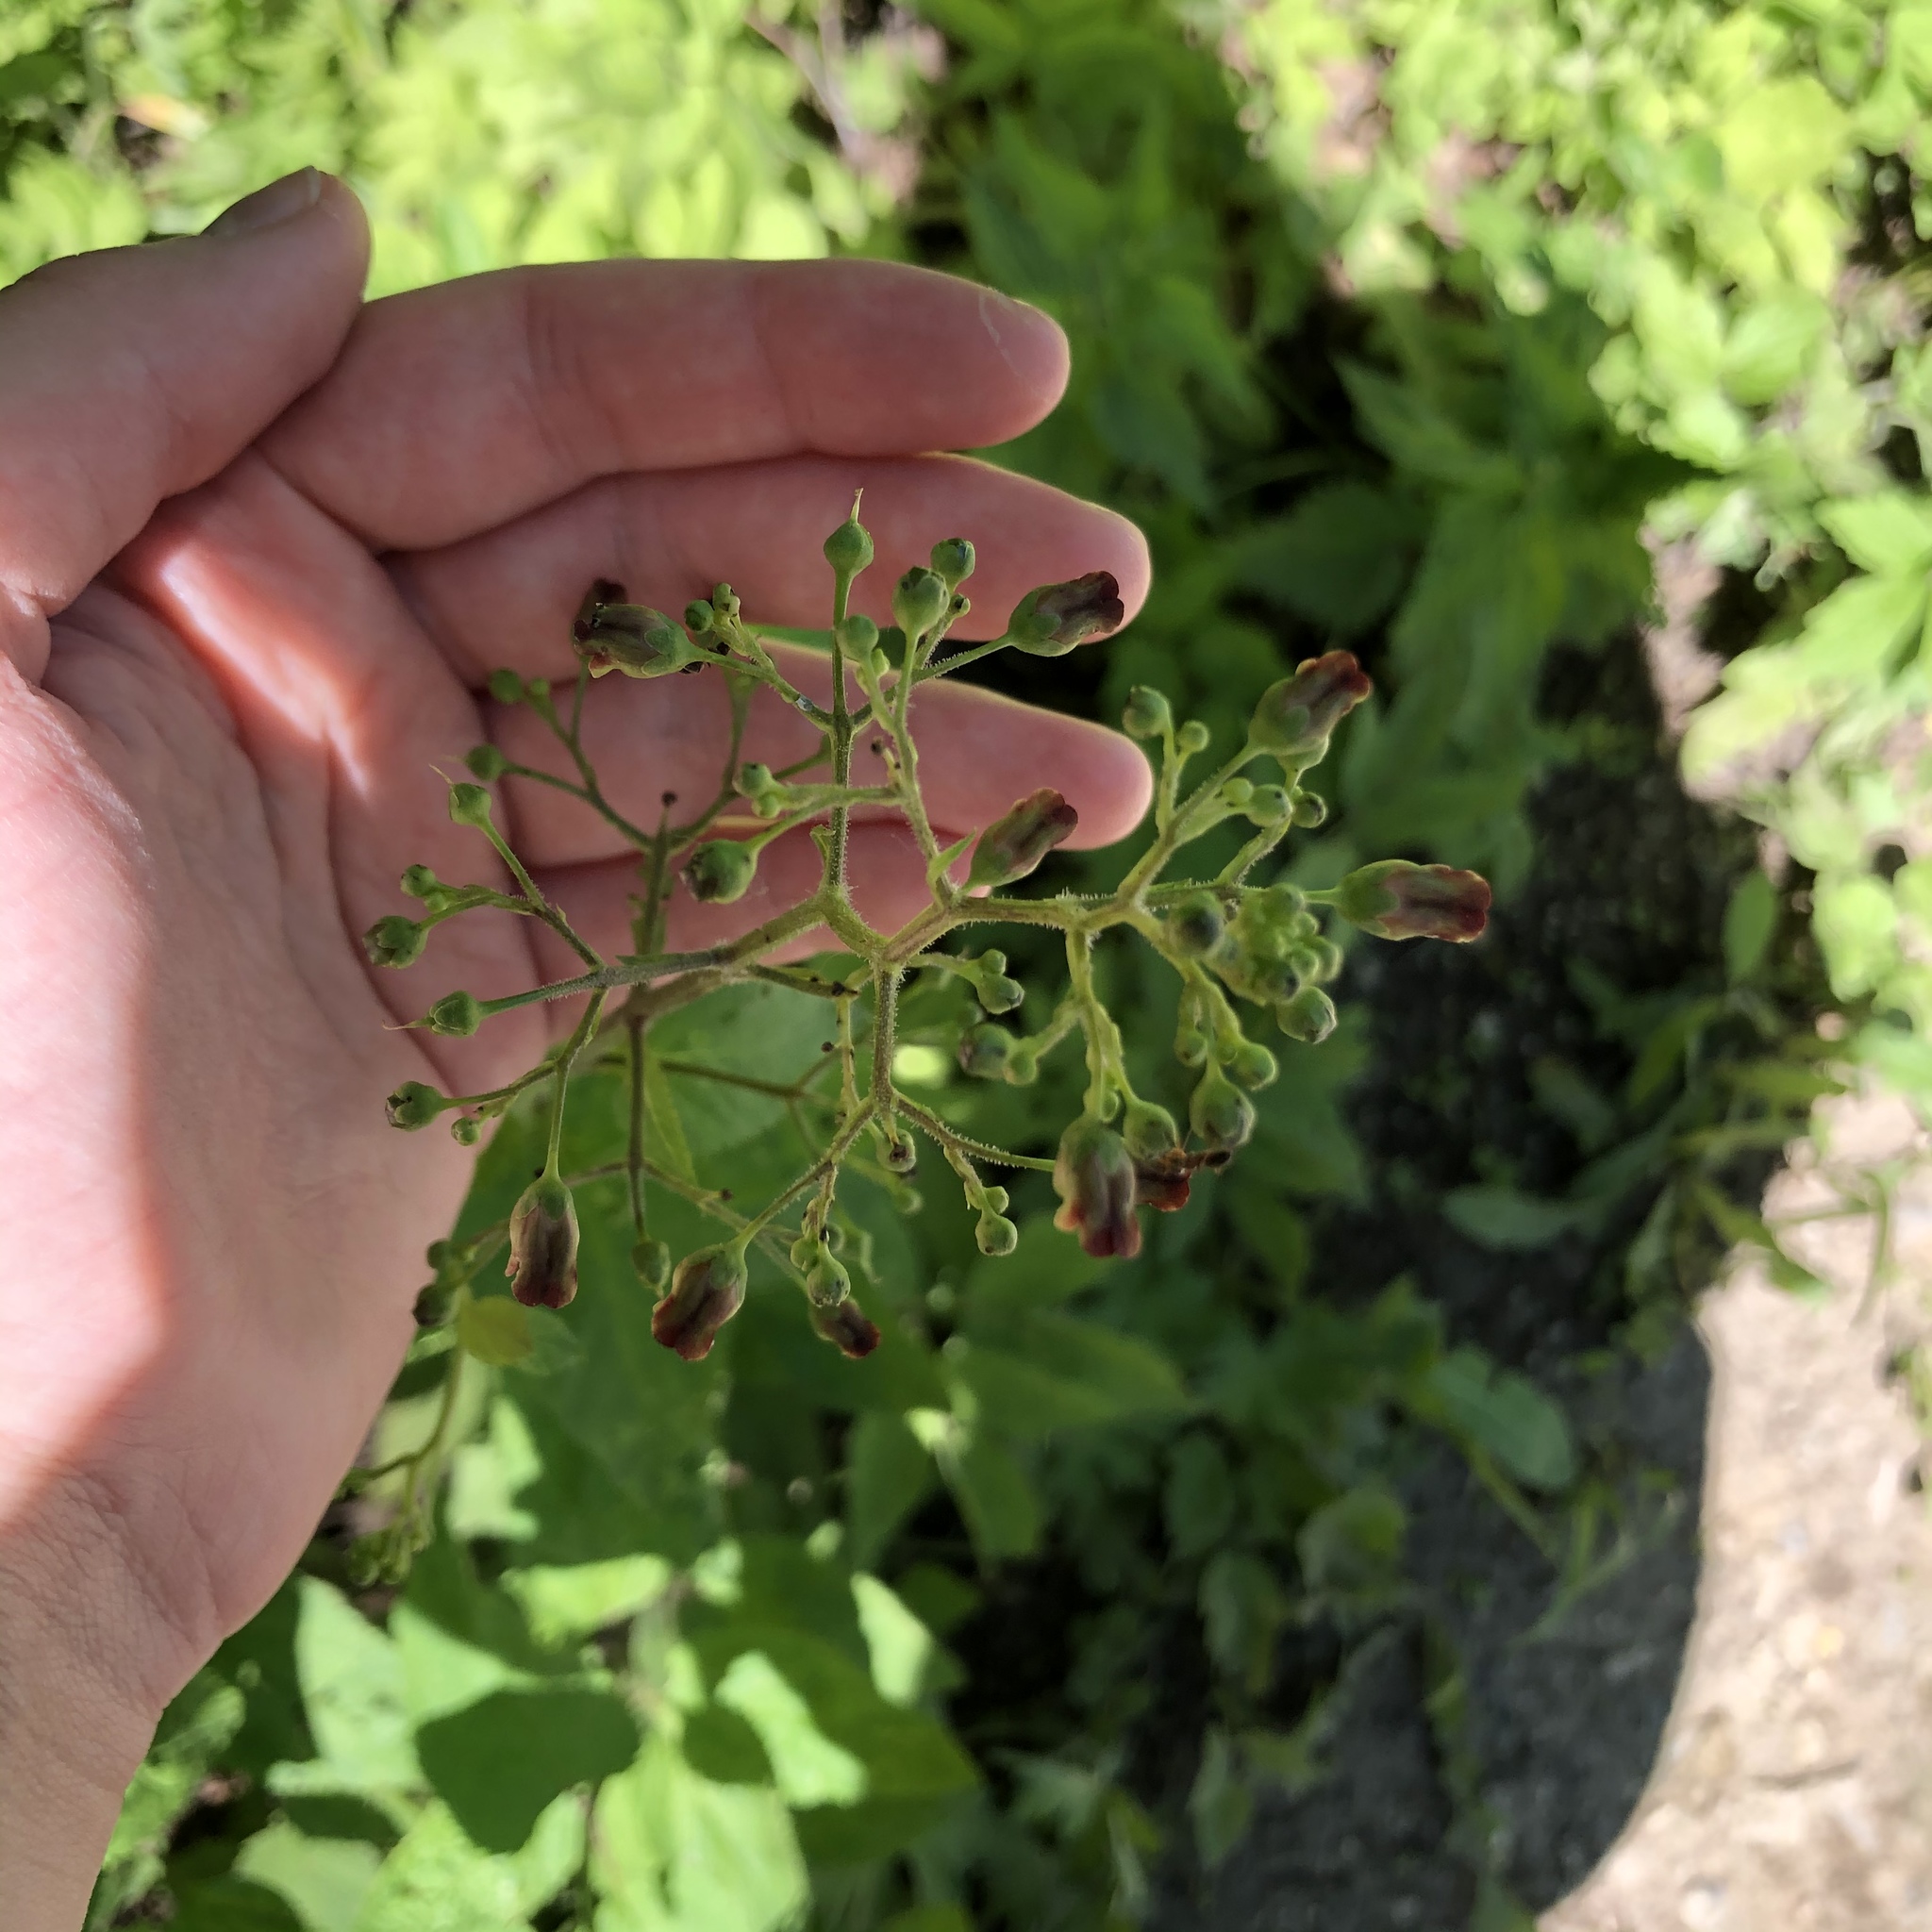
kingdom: Plantae
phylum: Tracheophyta
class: Magnoliopsida
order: Lamiales
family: Scrophulariaceae
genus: Scrophularia
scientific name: Scrophularia nodosa
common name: Common figwort
